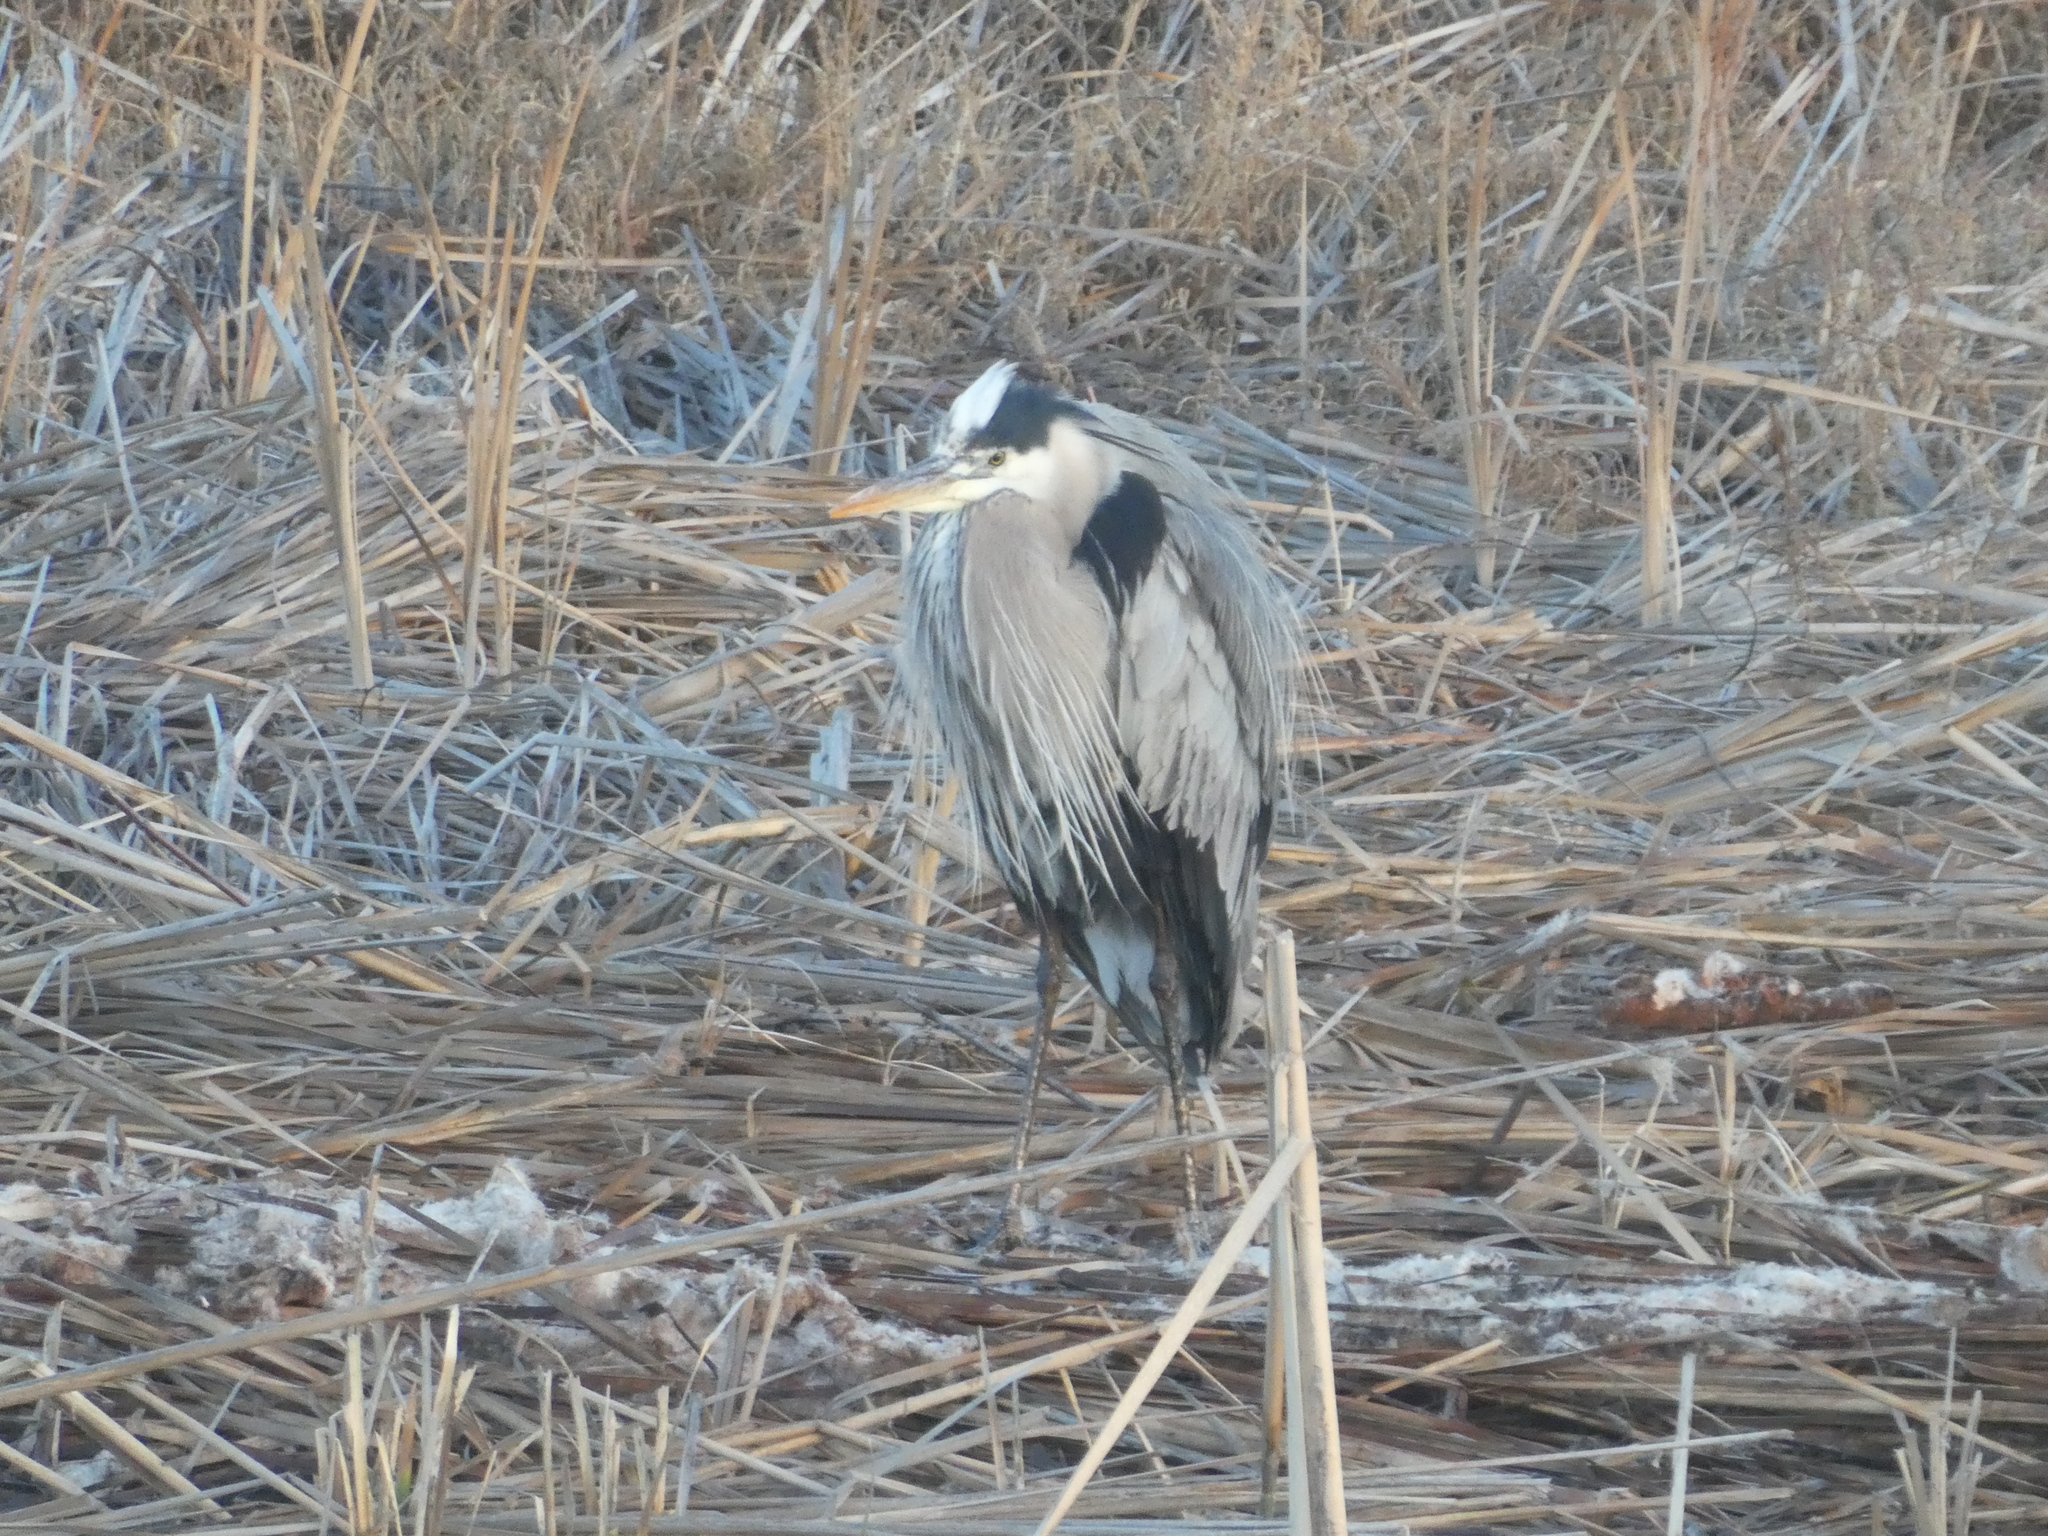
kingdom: Animalia
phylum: Chordata
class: Aves
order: Pelecaniformes
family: Ardeidae
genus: Ardea
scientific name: Ardea herodias
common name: Great blue heron
